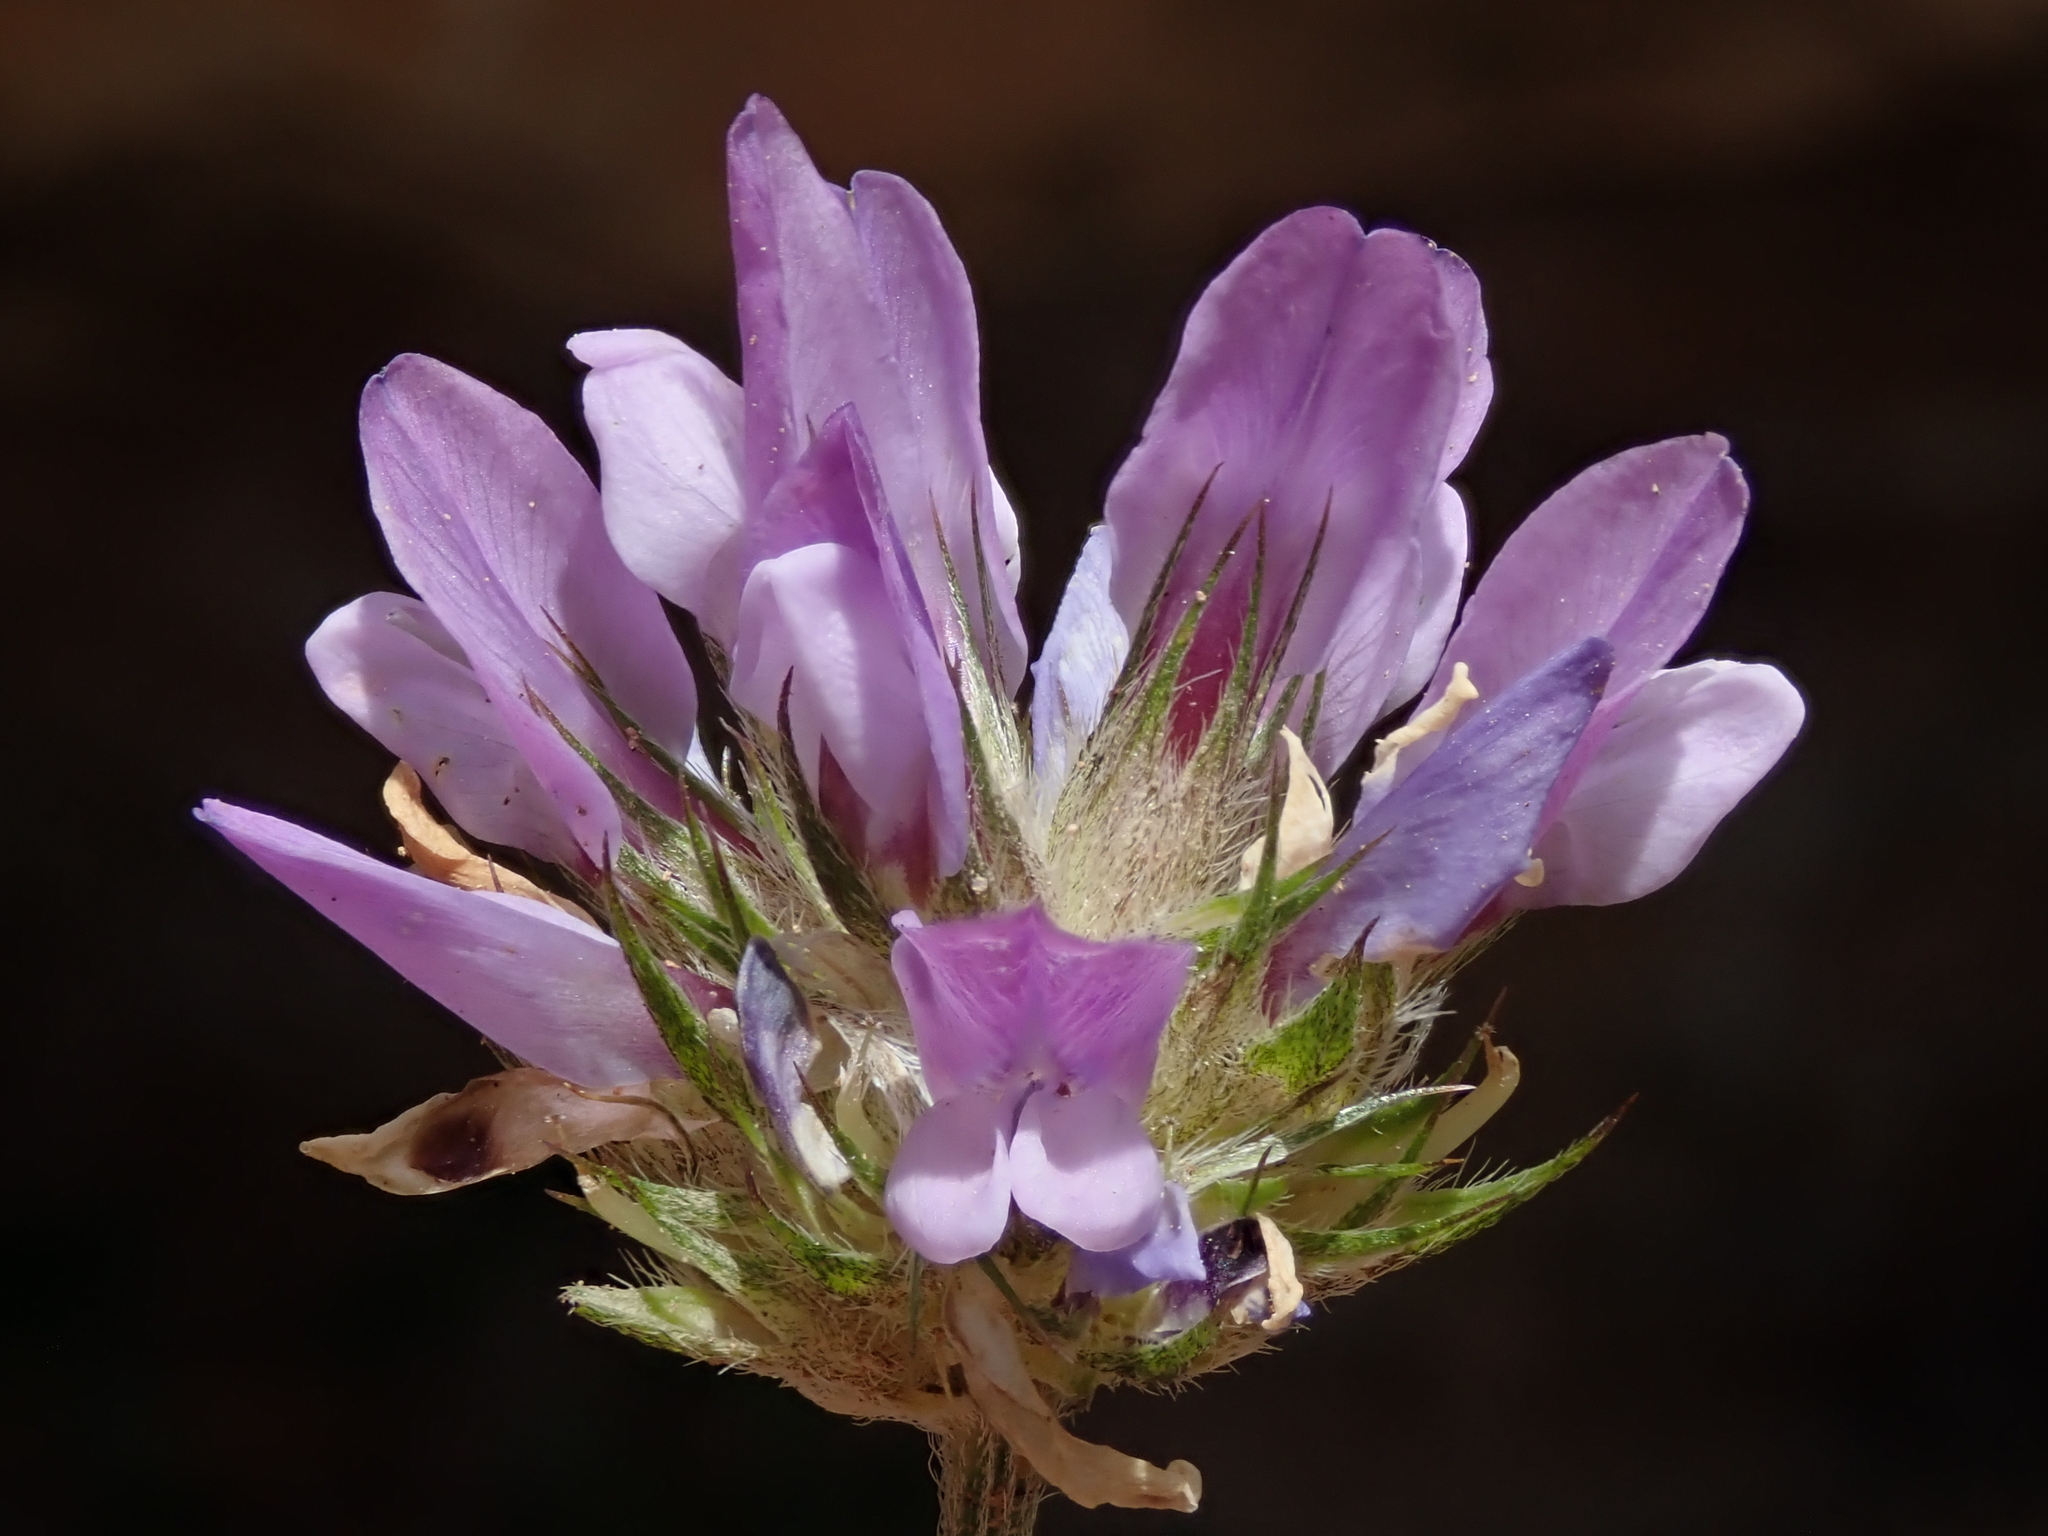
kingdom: Plantae
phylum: Tracheophyta
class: Magnoliopsida
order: Fabales
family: Fabaceae
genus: Bituminaria
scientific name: Bituminaria bituminosa
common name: Arabian pea
